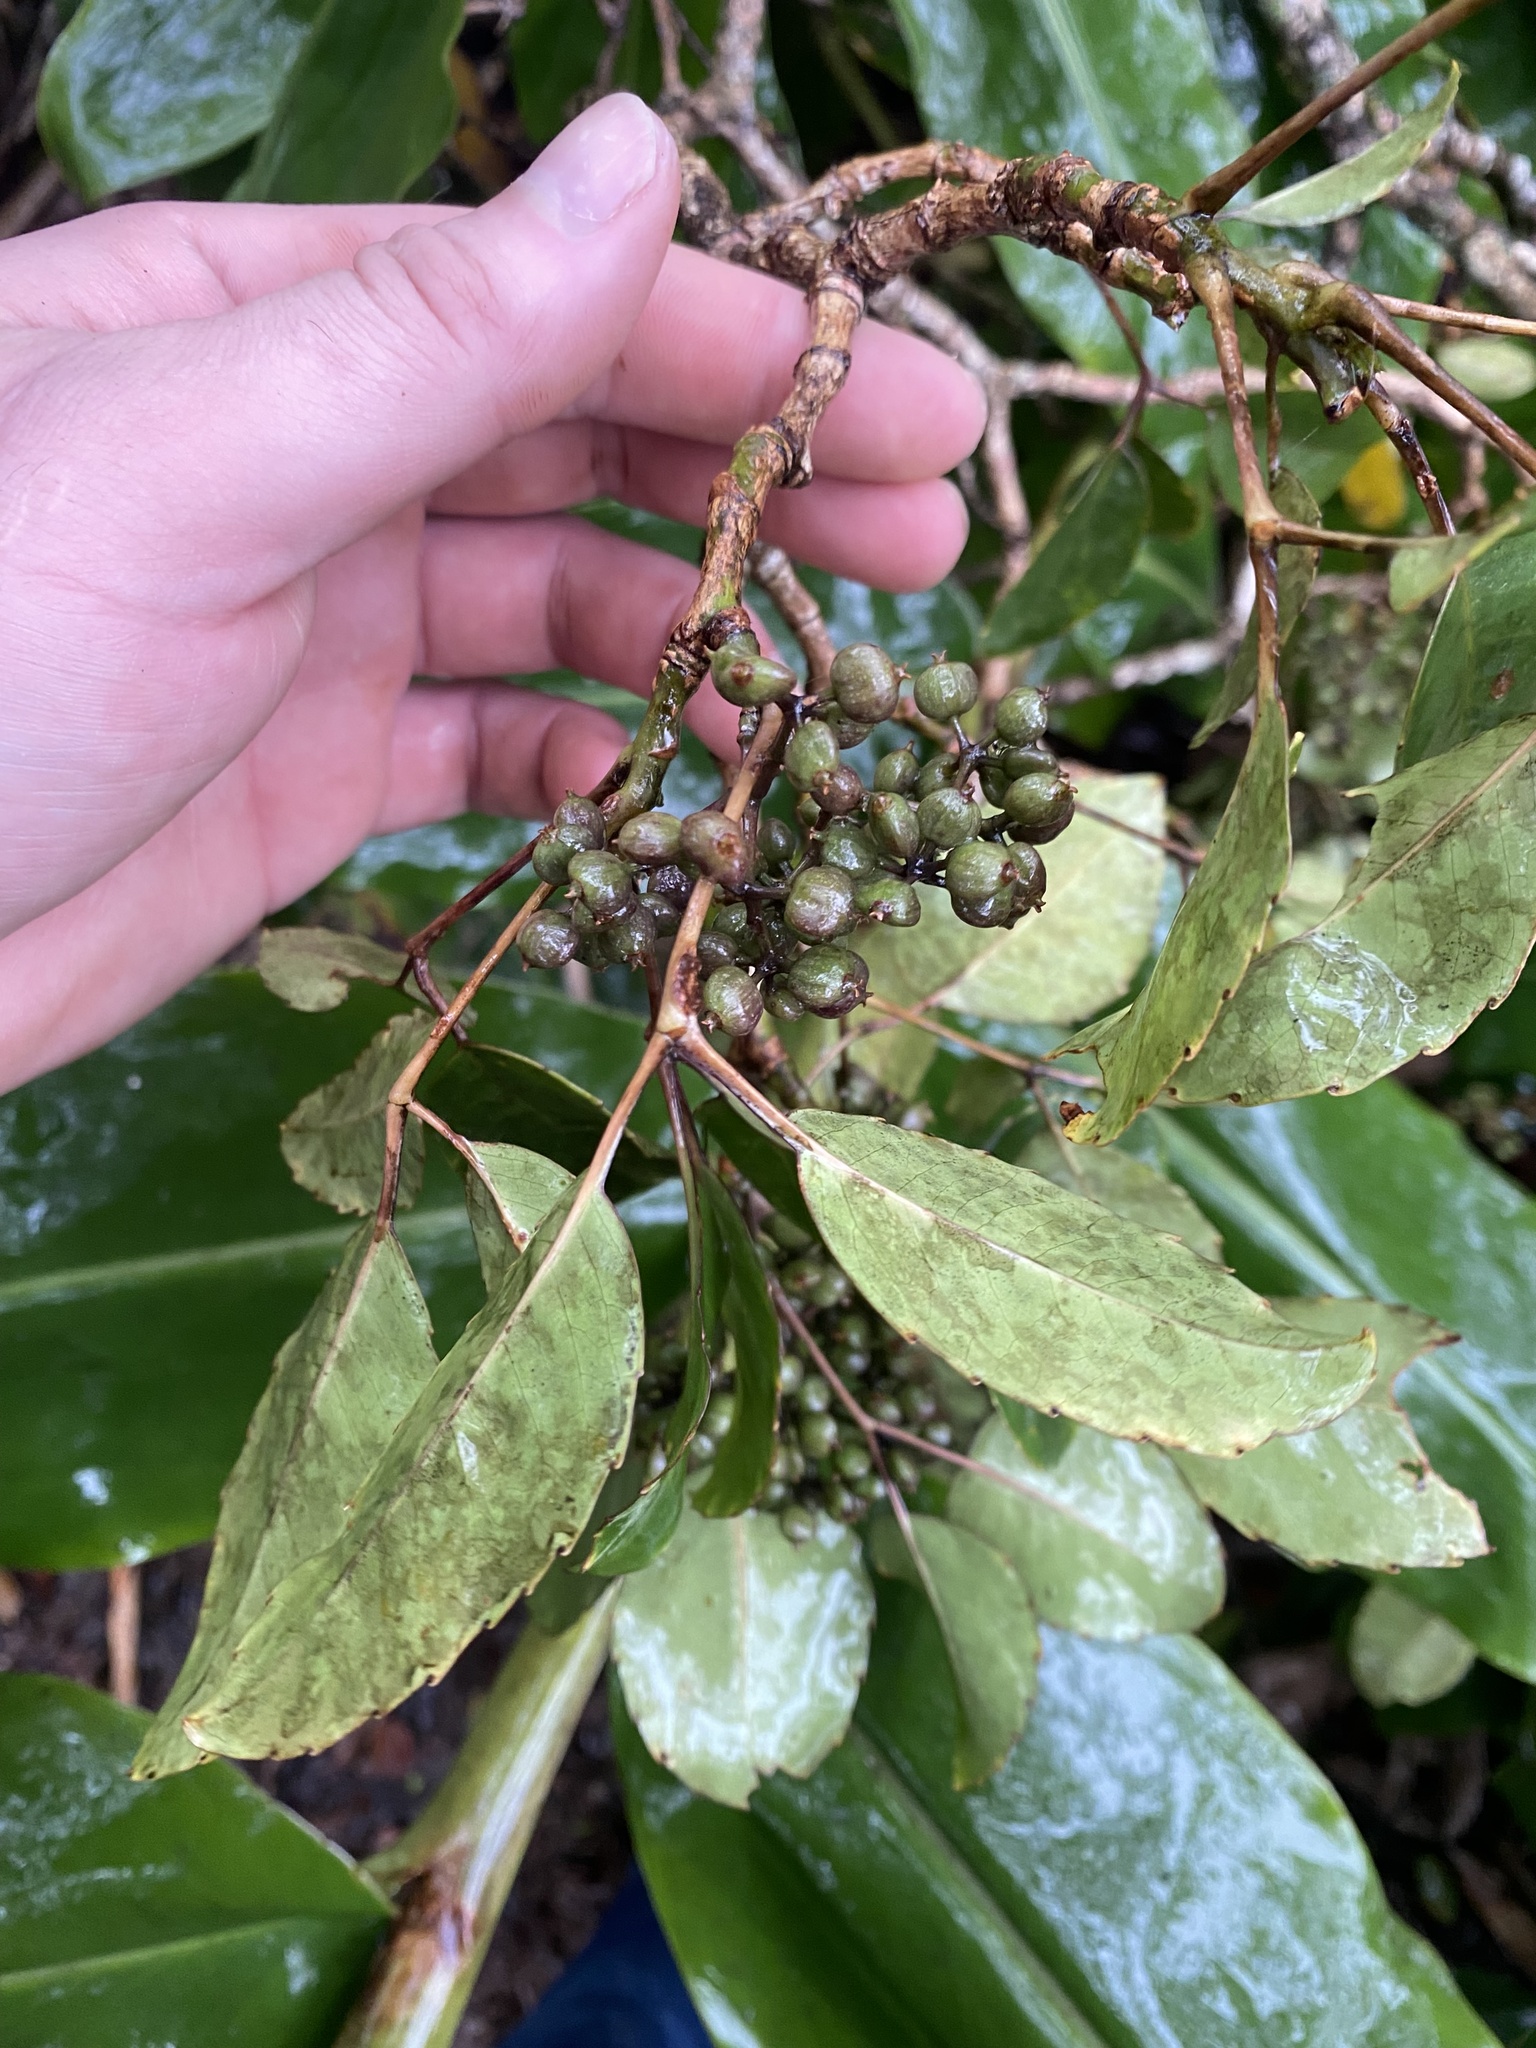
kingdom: Plantae
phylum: Tracheophyta
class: Magnoliopsida
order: Apiales
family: Araliaceae
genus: Cheirodendron
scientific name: Cheirodendron trigynum
